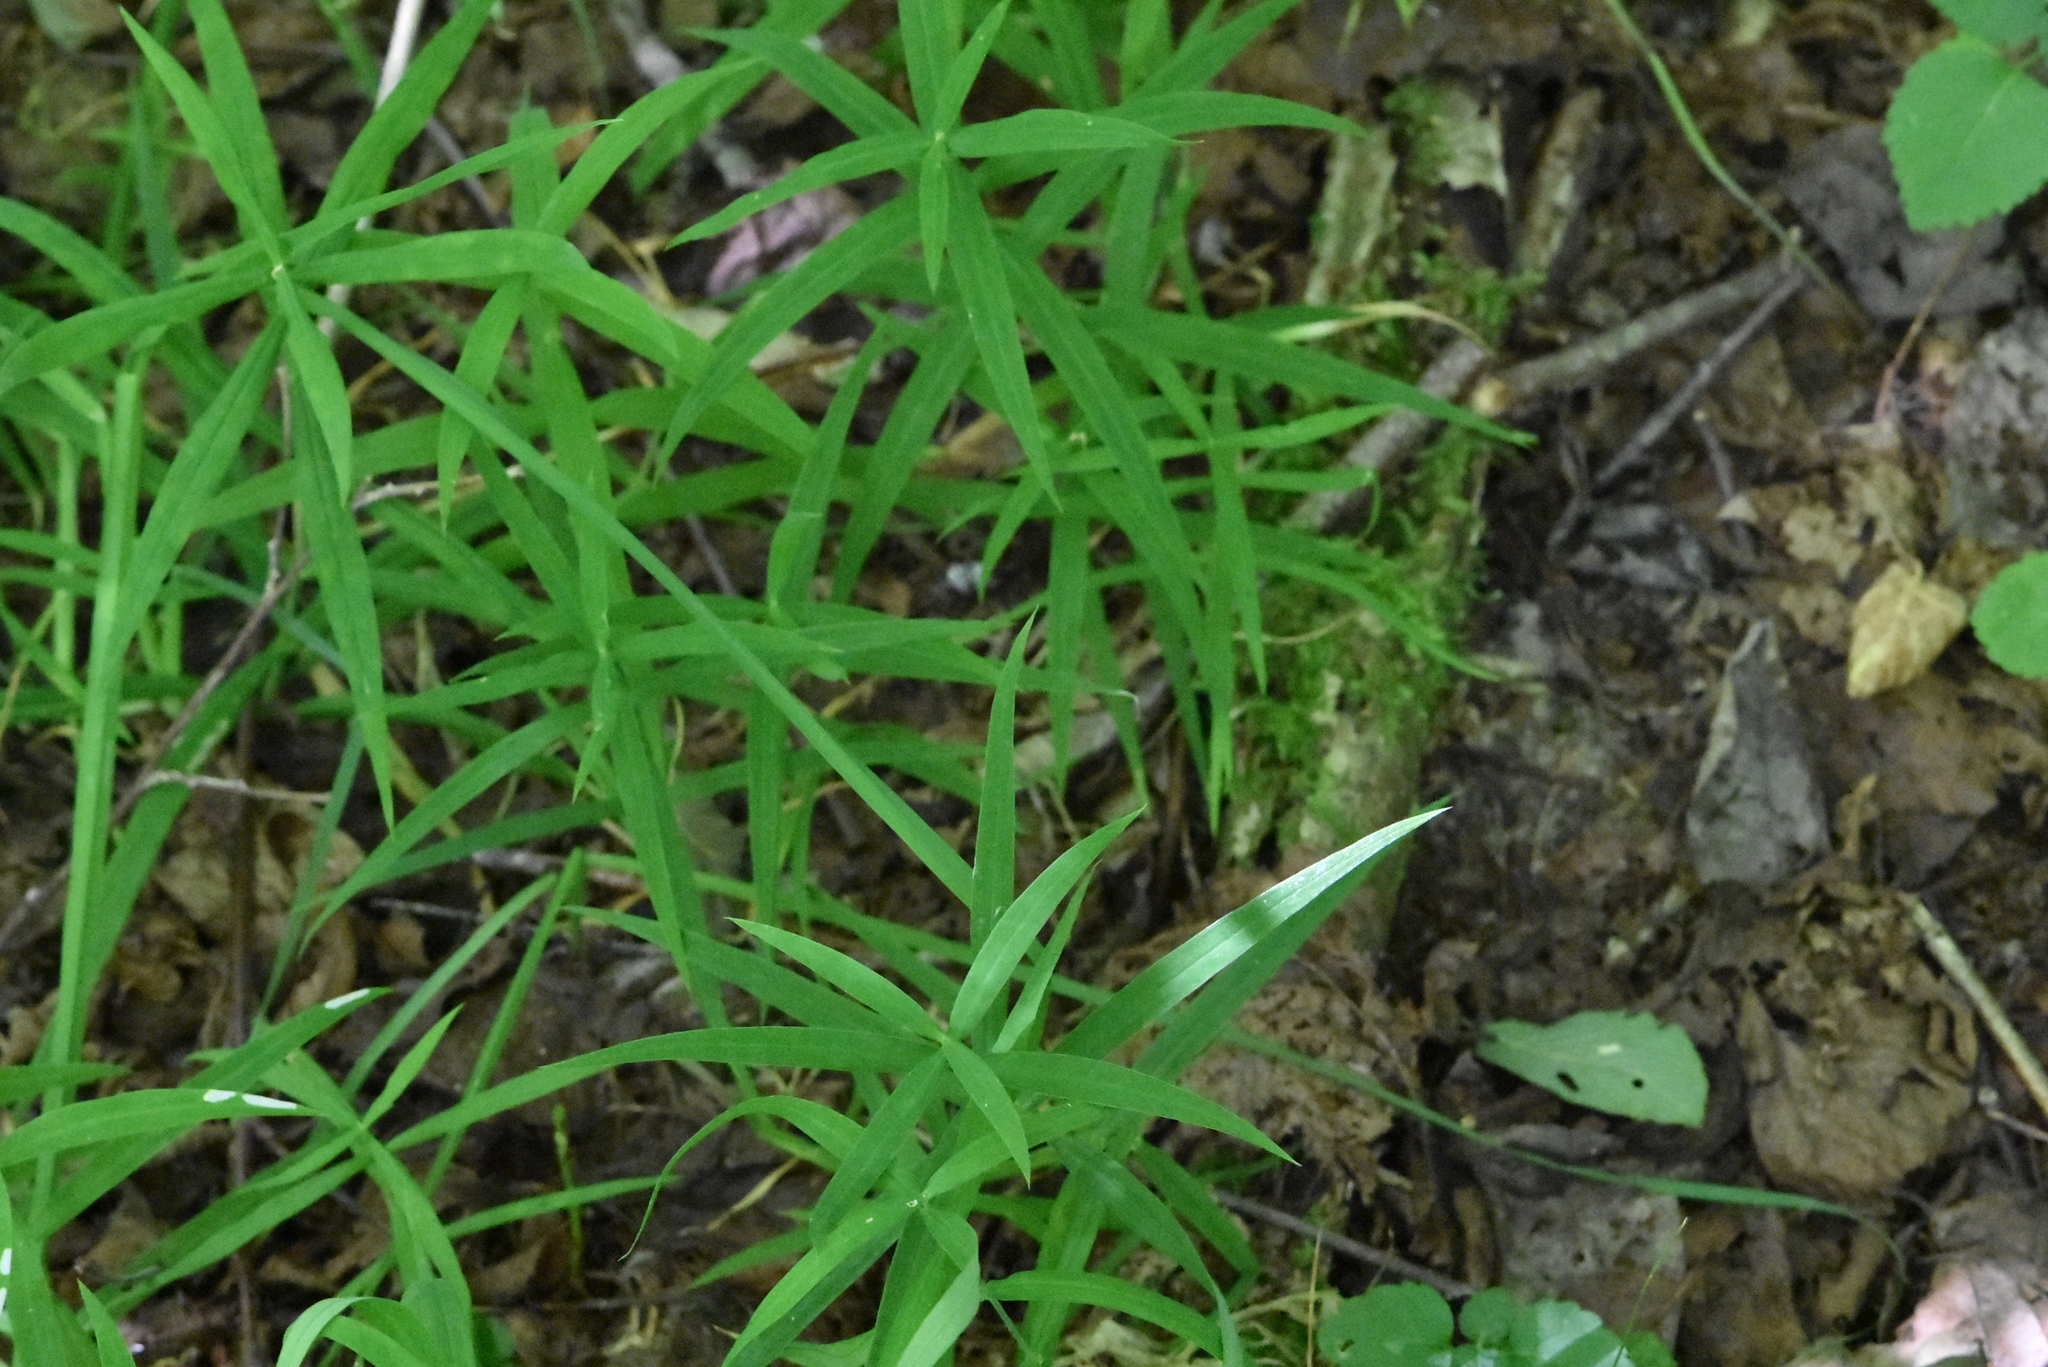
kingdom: Plantae
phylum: Tracheophyta
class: Magnoliopsida
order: Caryophyllales
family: Caryophyllaceae
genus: Rabelera
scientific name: Rabelera holostea
